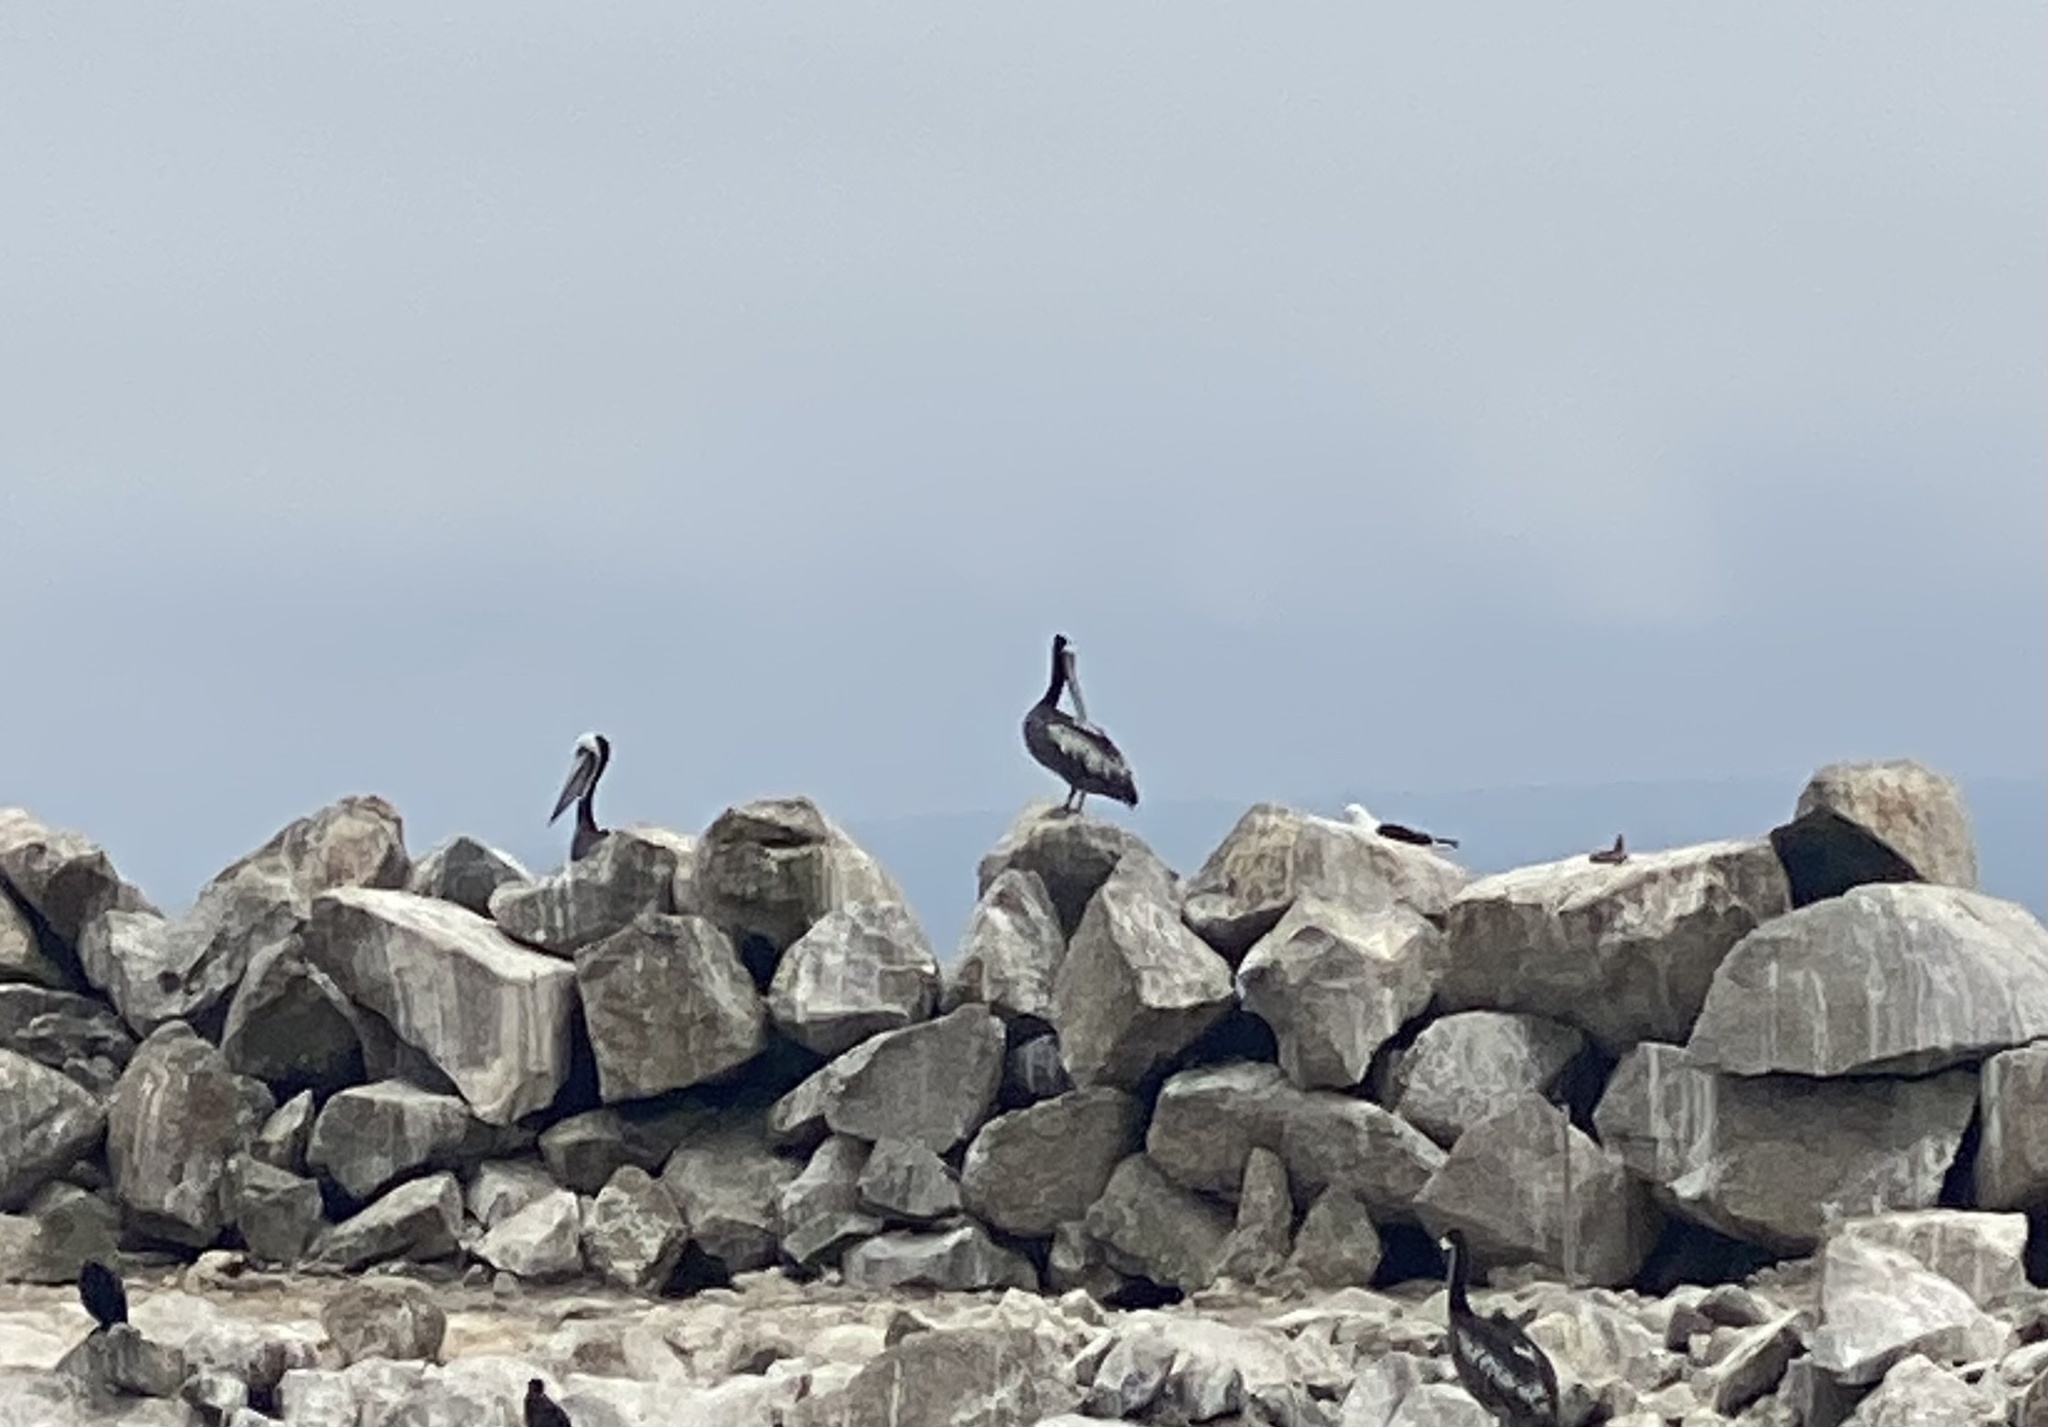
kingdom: Animalia
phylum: Chordata
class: Aves
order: Pelecaniformes
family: Pelecanidae
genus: Pelecanus
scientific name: Pelecanus thagus
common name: Peruvian pelican
